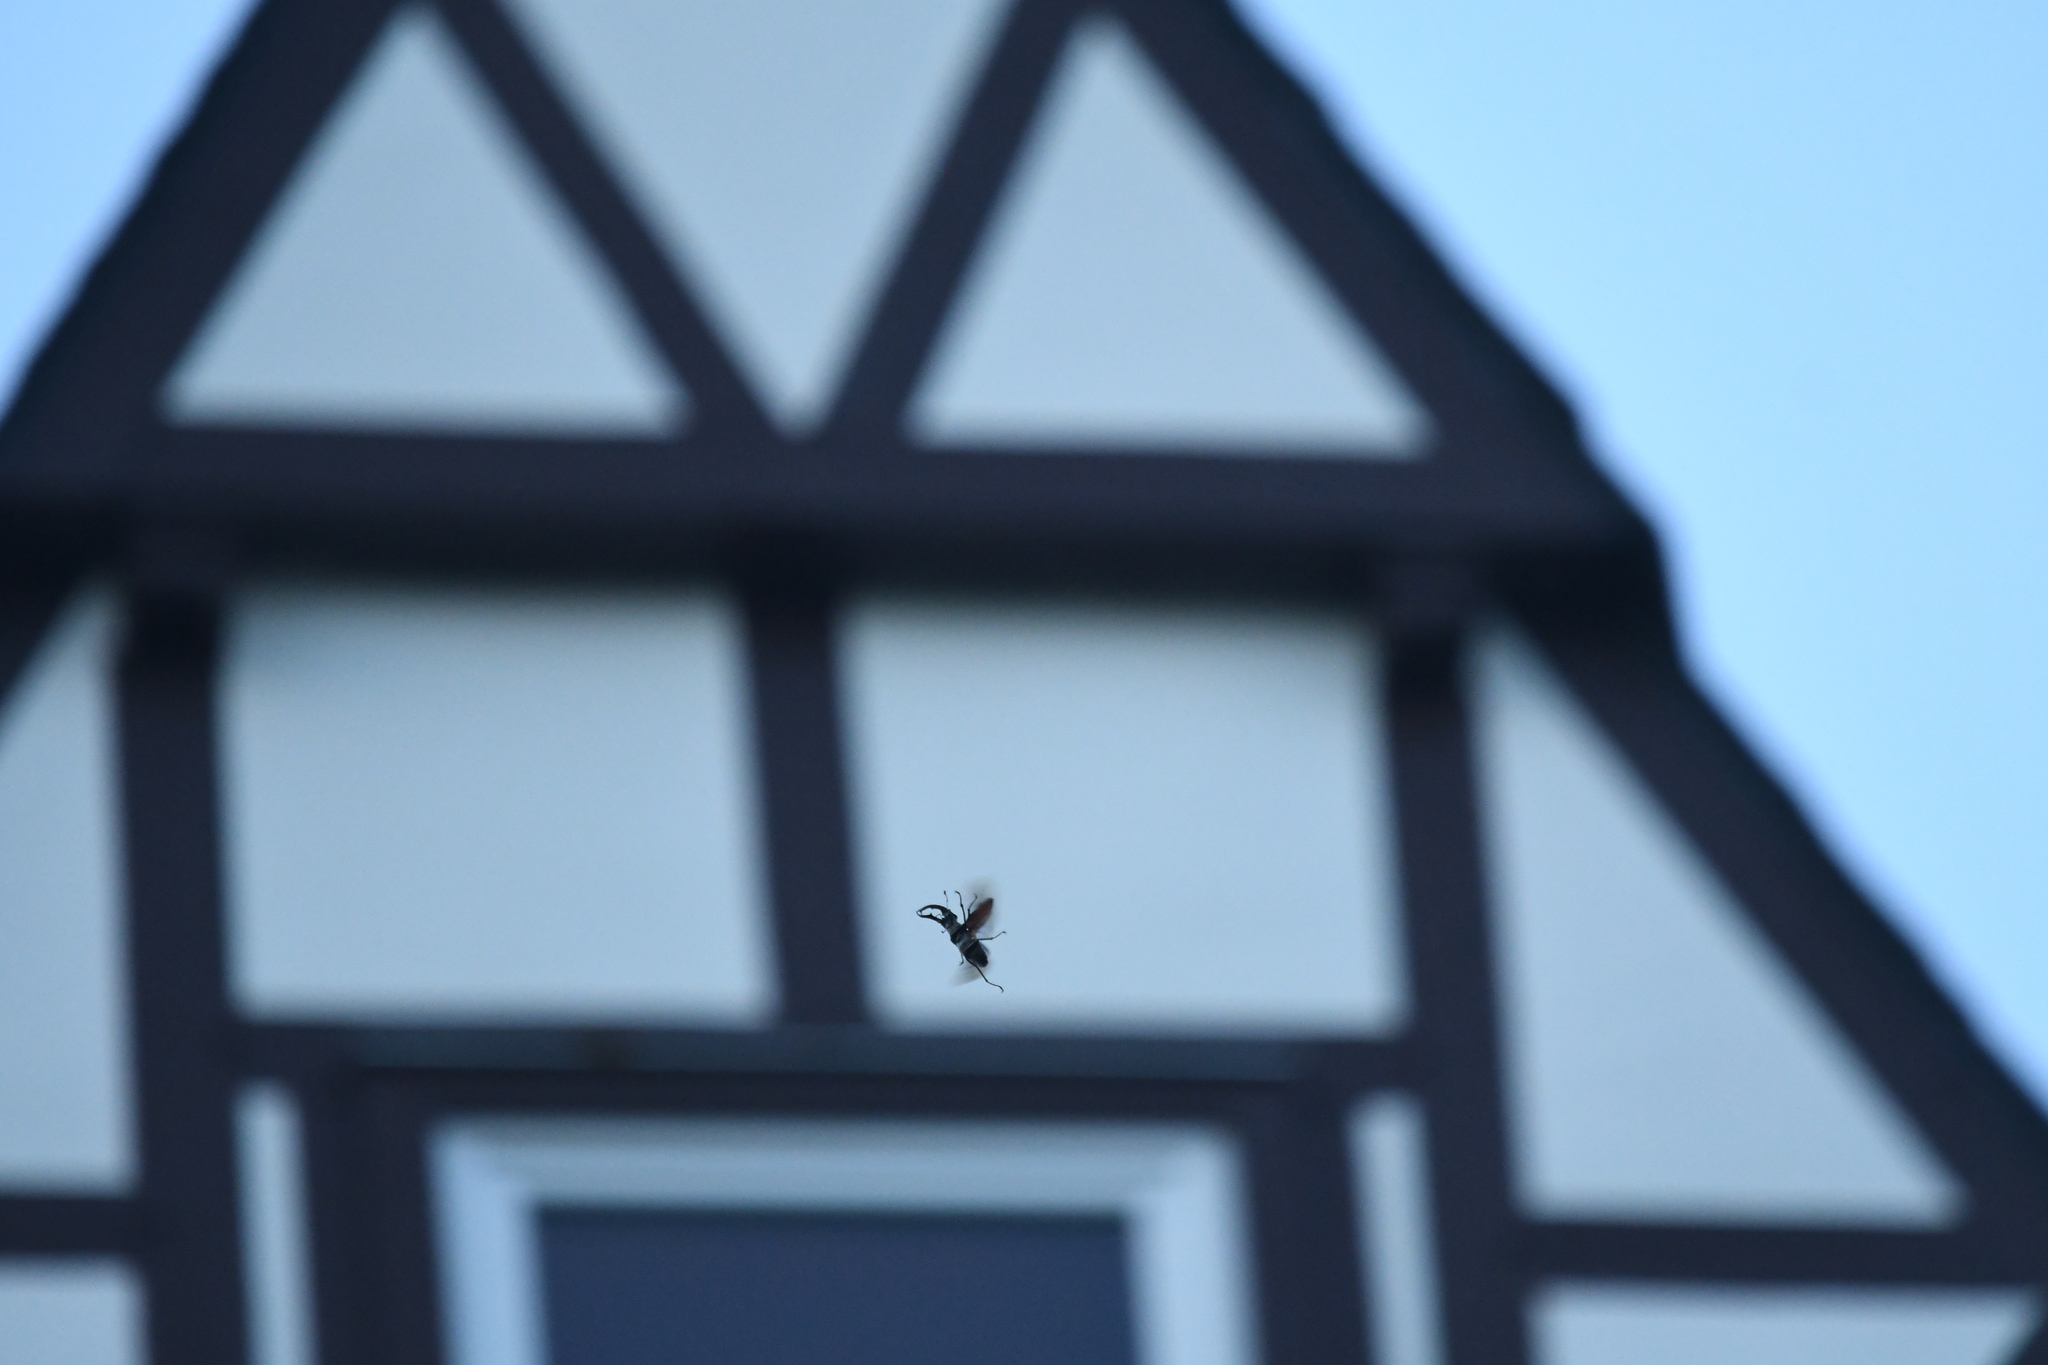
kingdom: Animalia
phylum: Arthropoda
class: Insecta
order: Coleoptera
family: Lucanidae
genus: Lucanus
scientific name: Lucanus cervus
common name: Stag beetle
